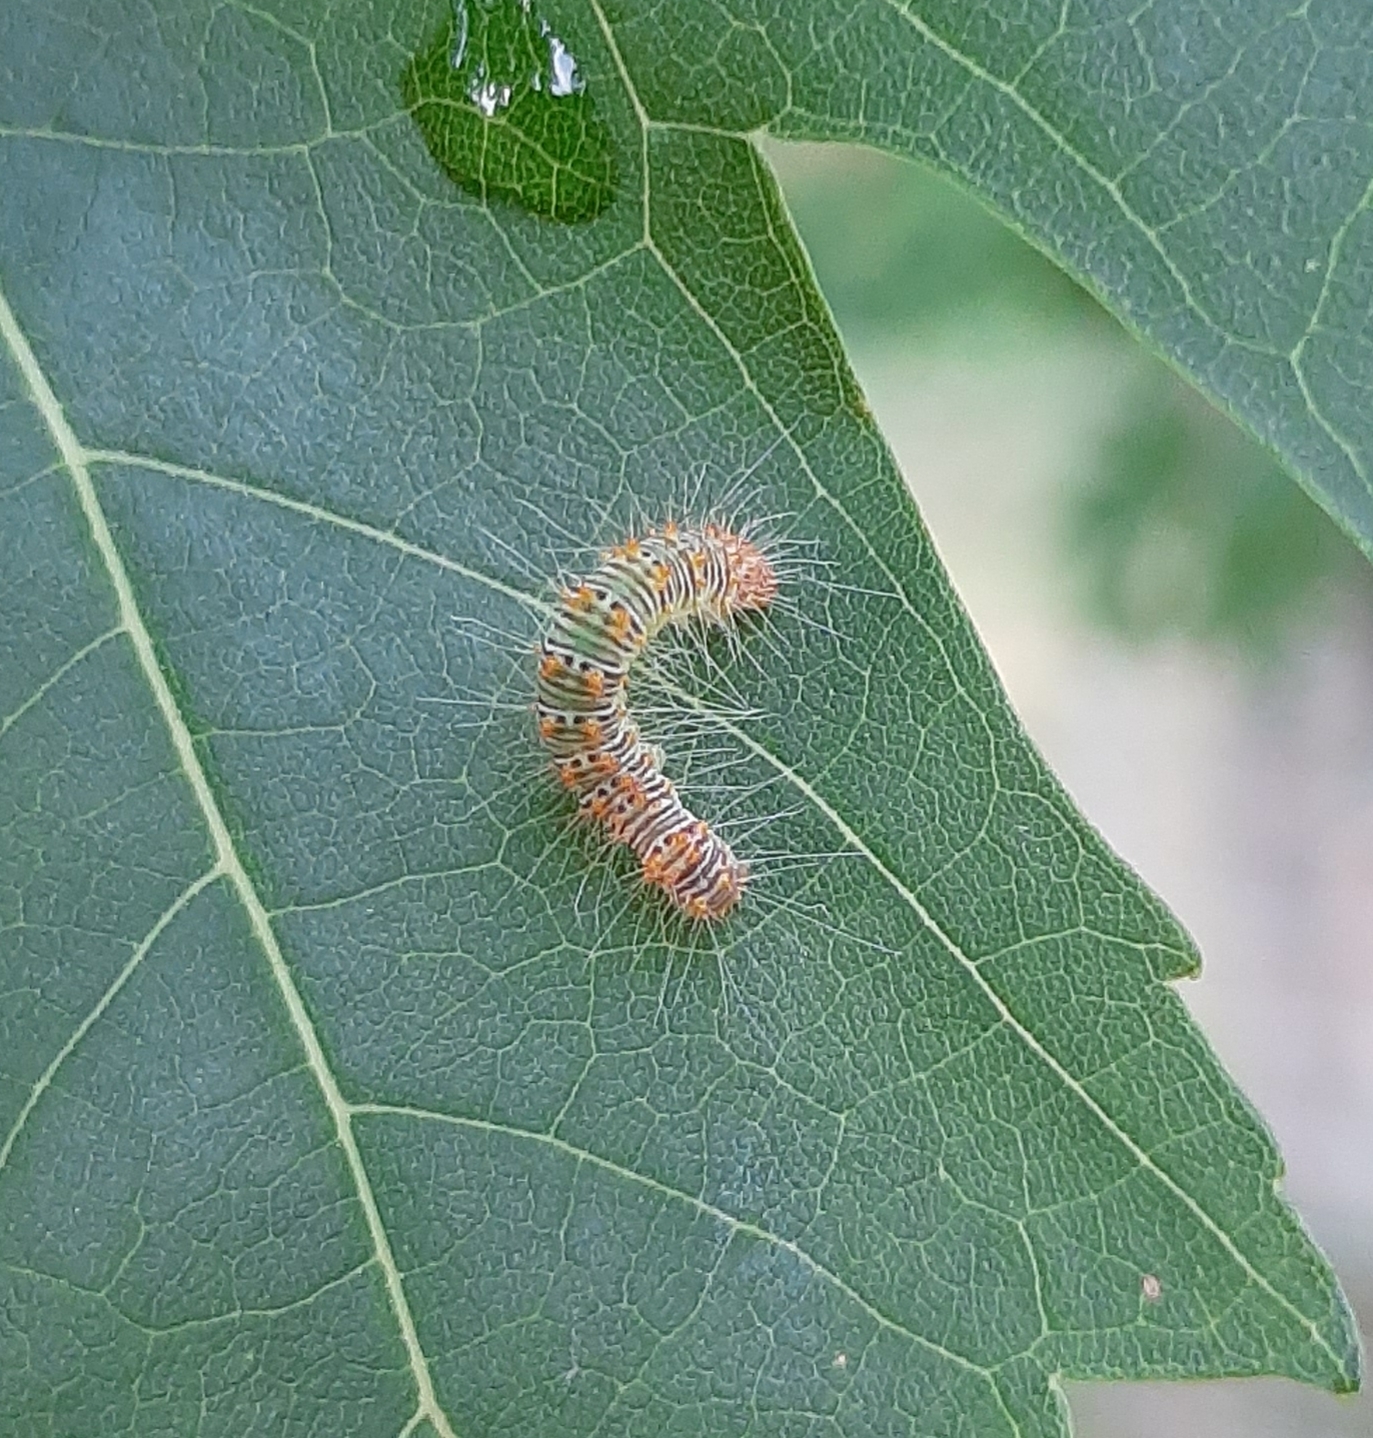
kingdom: Animalia
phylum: Arthropoda
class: Insecta
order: Lepidoptera
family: Noctuidae
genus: Acronicta
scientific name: Acronicta retardata
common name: Maple dagger
